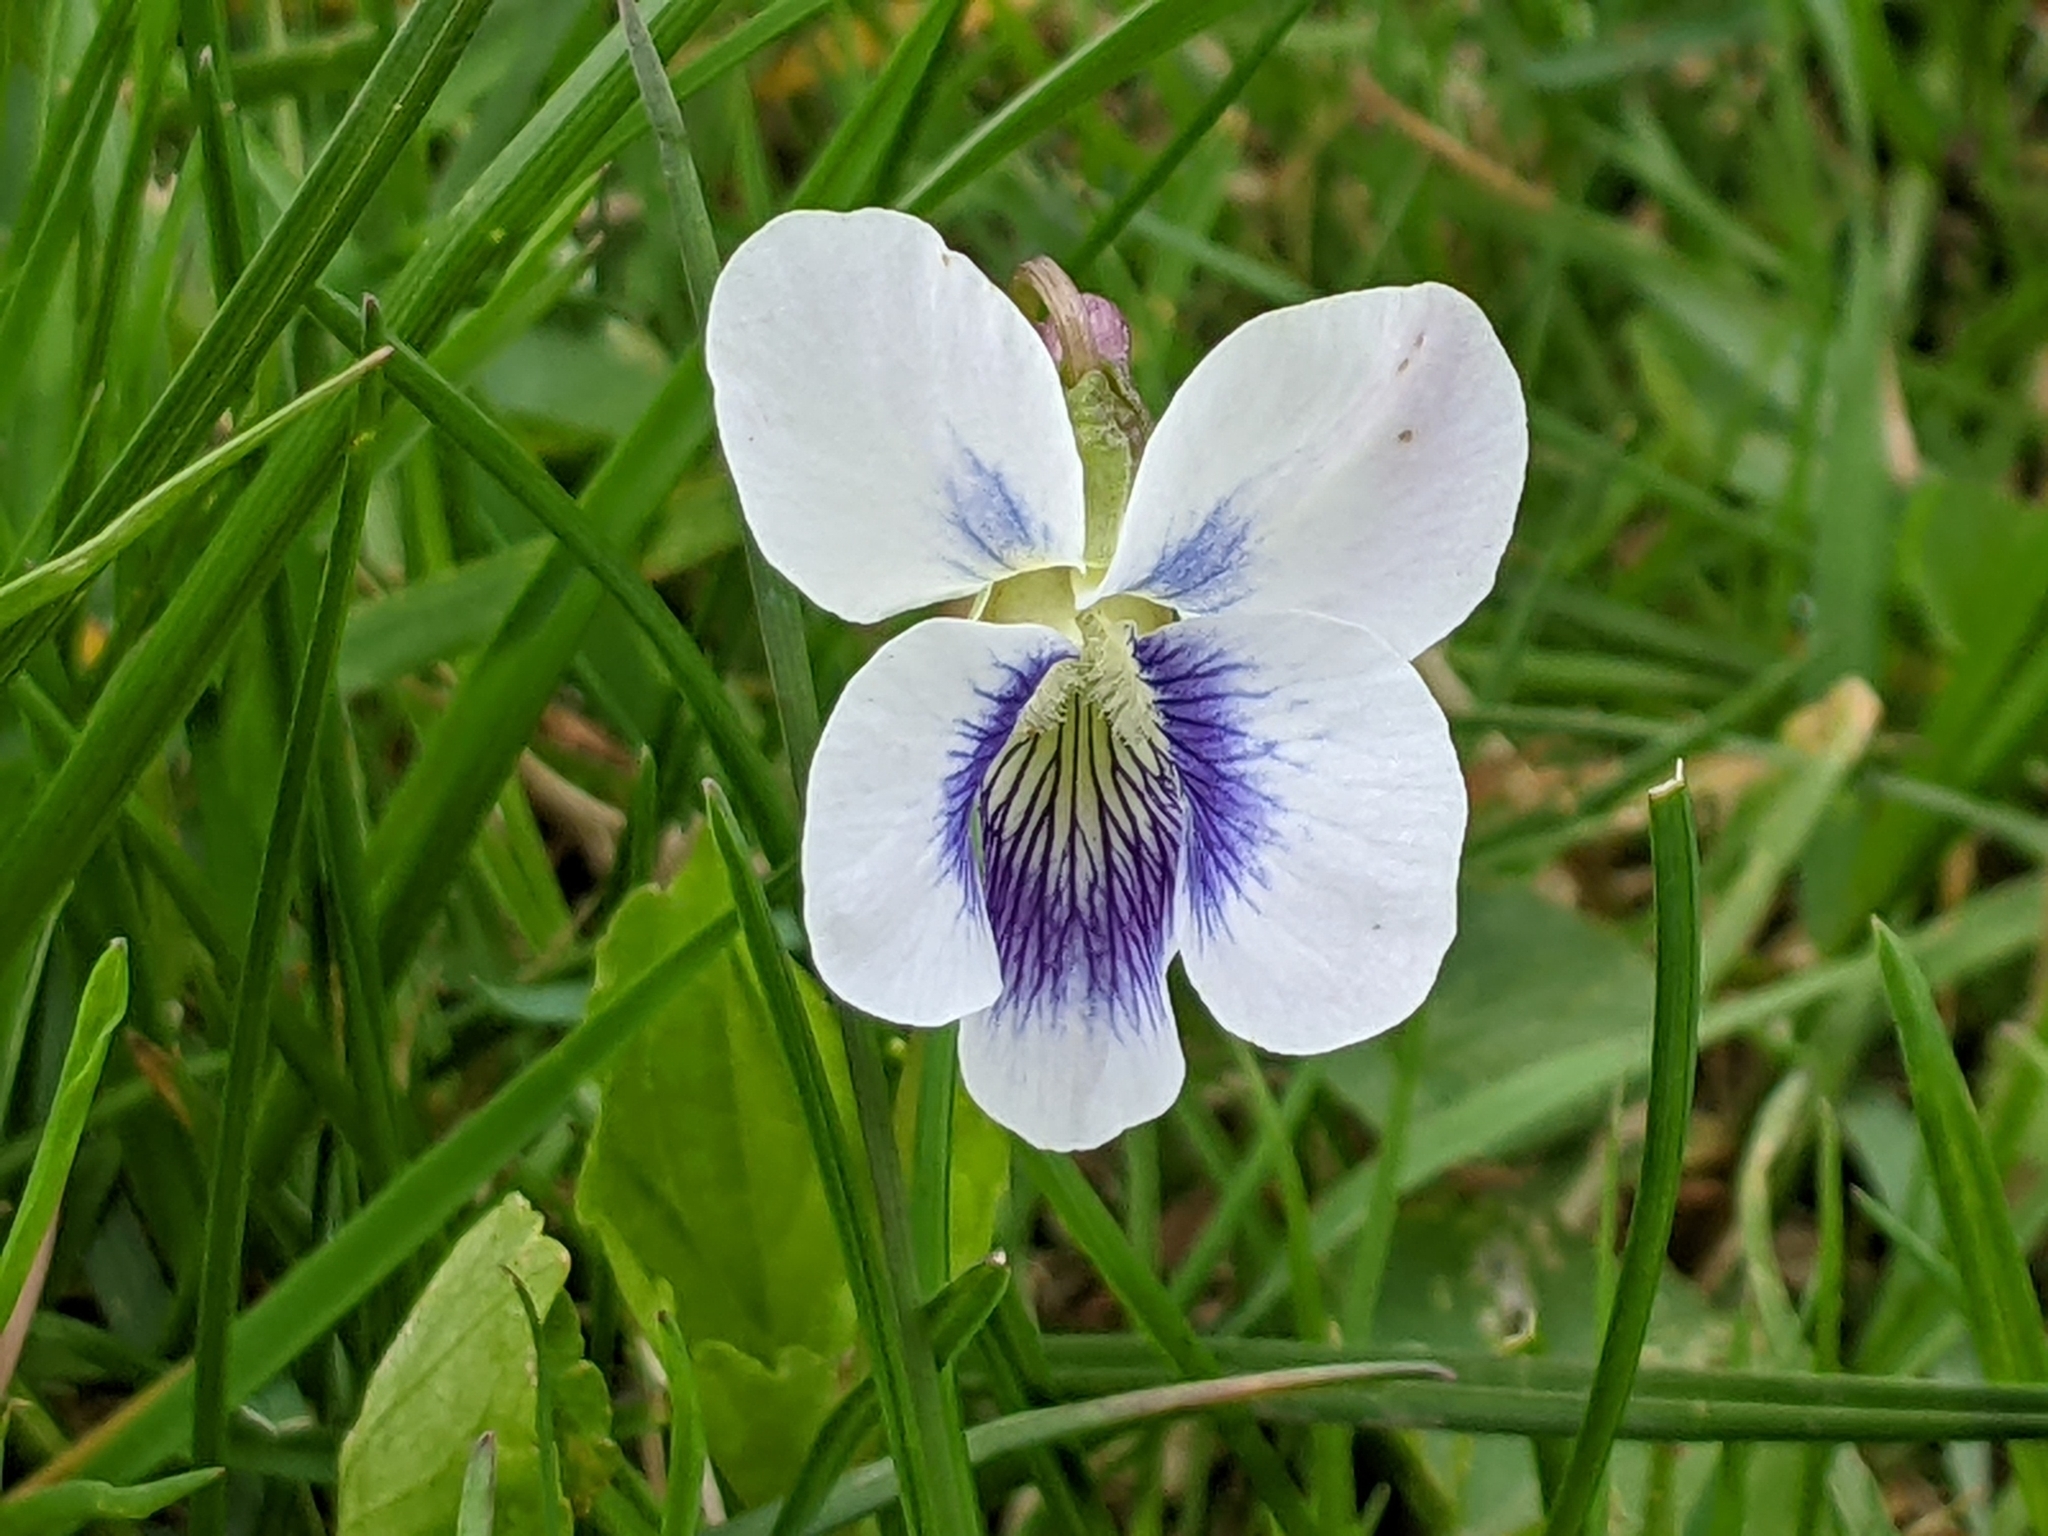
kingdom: Plantae
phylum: Tracheophyta
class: Magnoliopsida
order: Malpighiales
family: Violaceae
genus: Viola
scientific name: Viola sororia
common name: Dooryard violet
